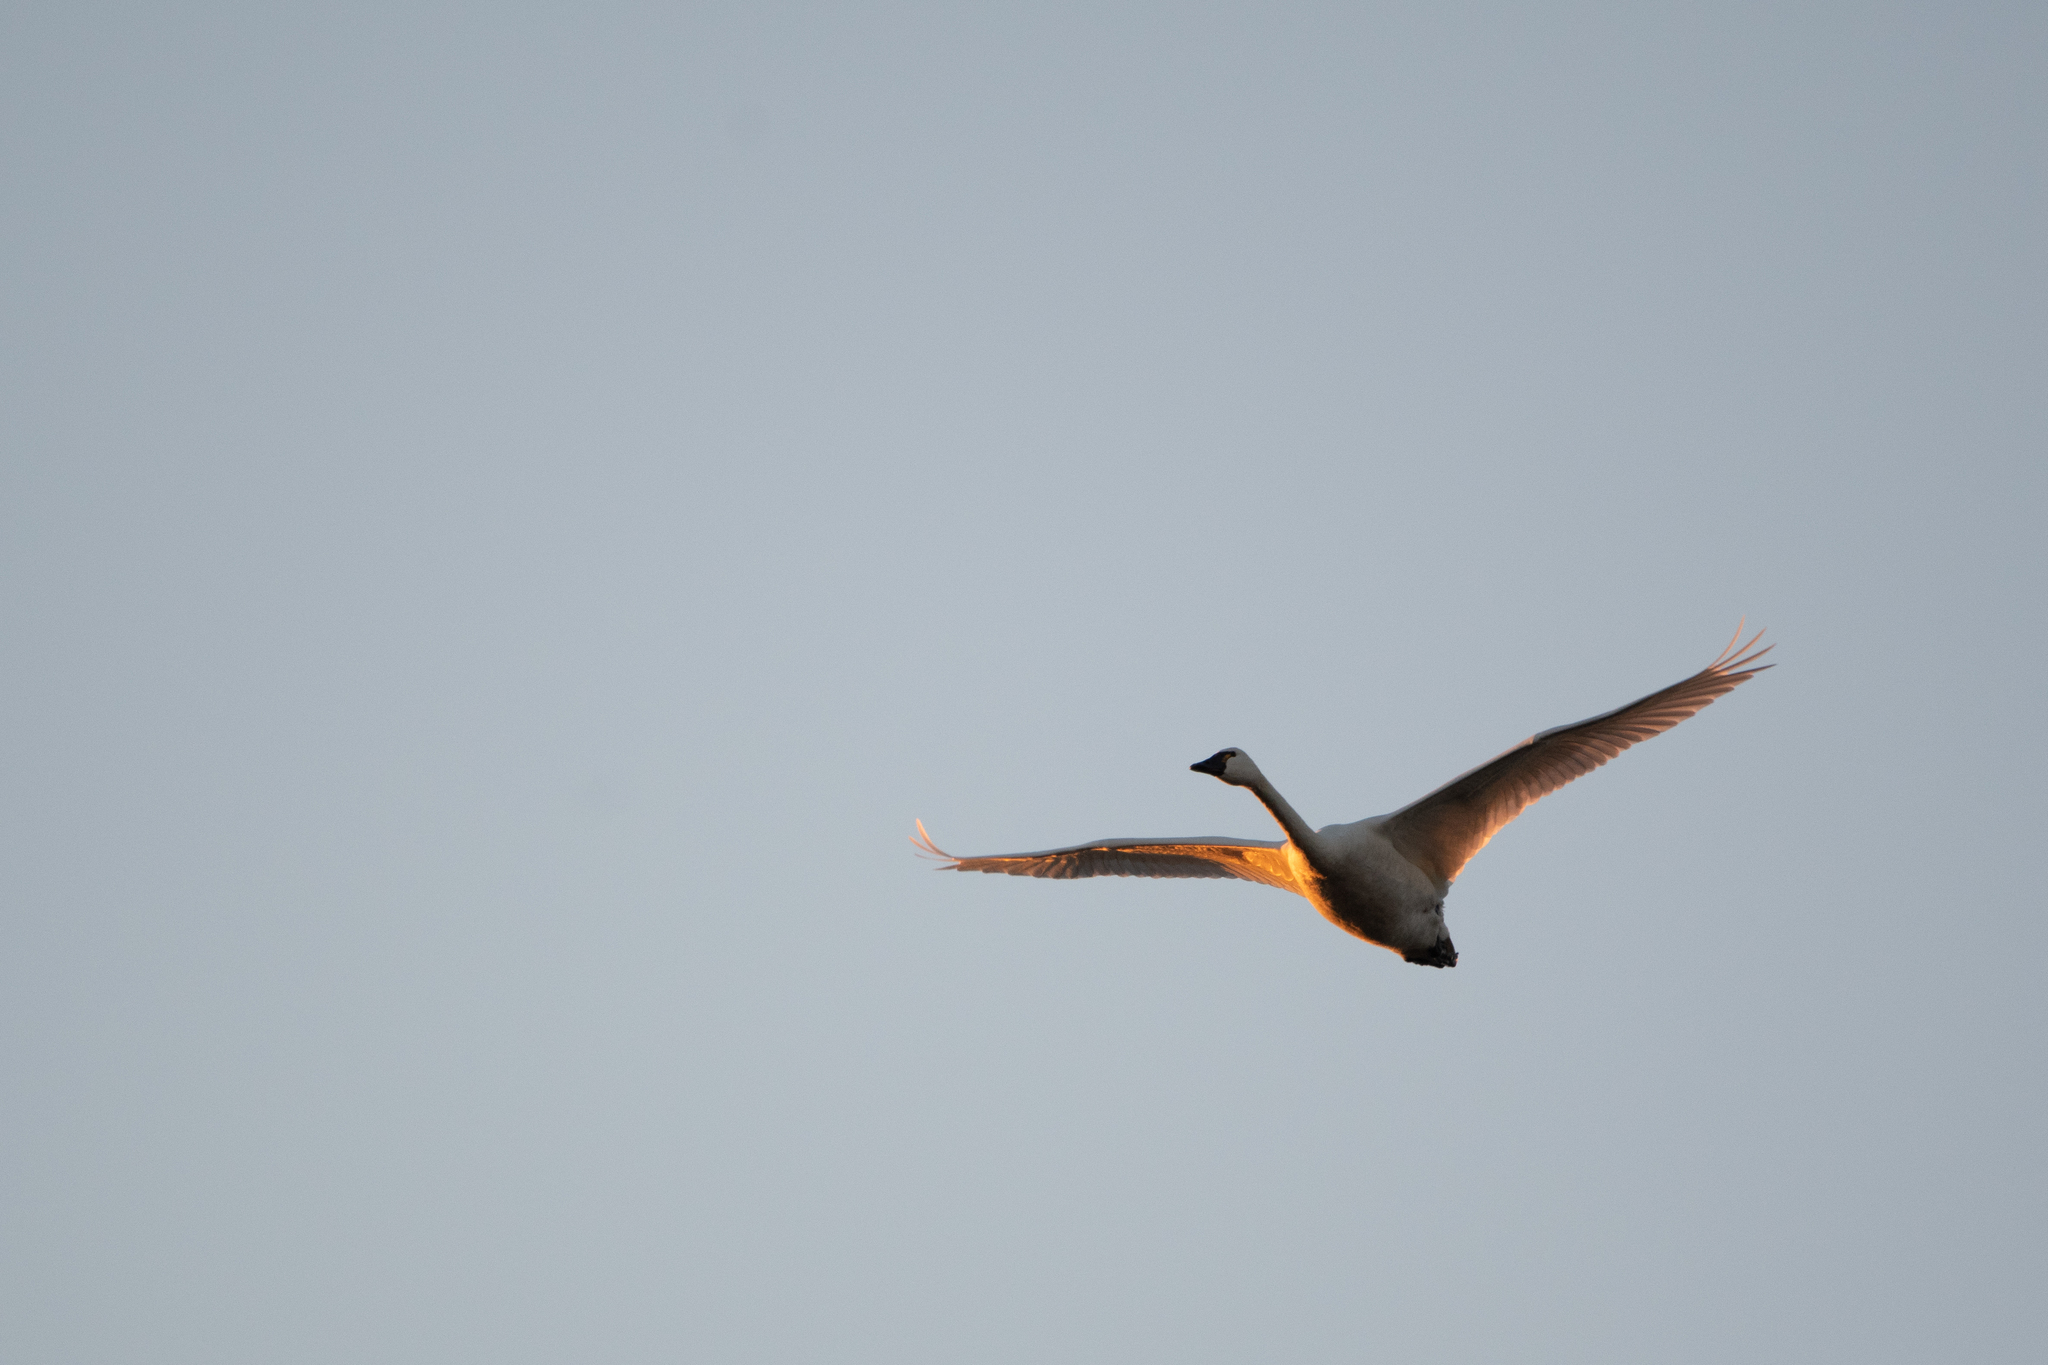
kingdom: Animalia
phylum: Chordata
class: Aves
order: Anseriformes
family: Anatidae
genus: Cygnus
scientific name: Cygnus columbianus
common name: Tundra swan
